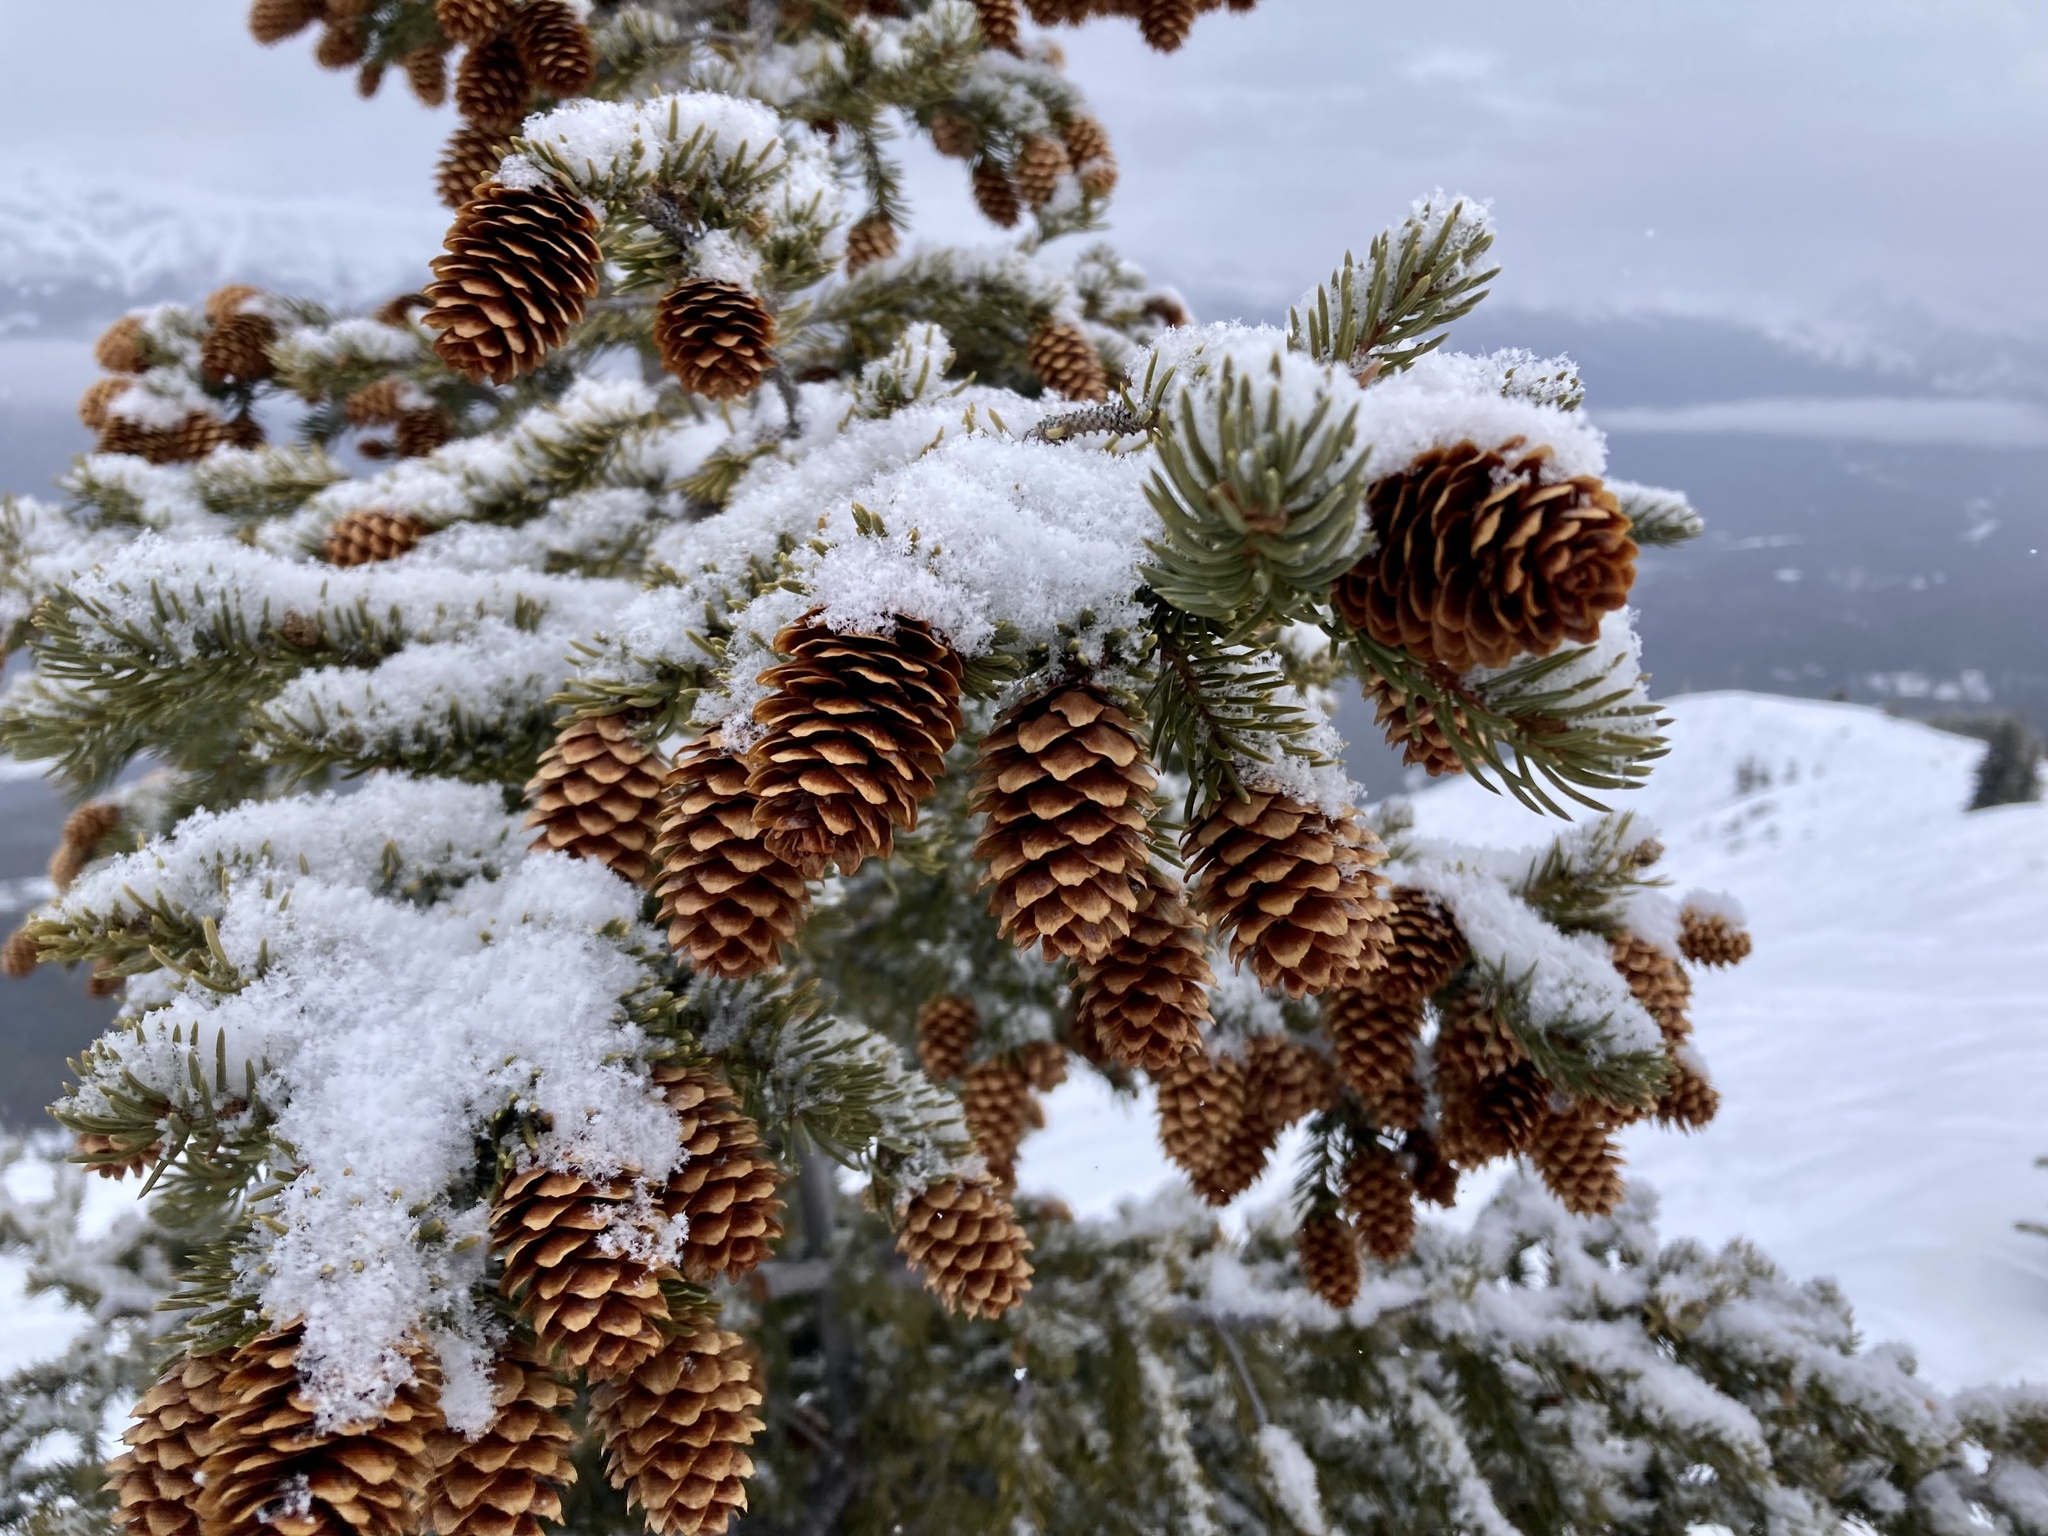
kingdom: Plantae
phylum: Tracheophyta
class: Pinopsida
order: Pinales
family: Pinaceae
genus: Picea
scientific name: Picea engelmannii
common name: Engelmann spruce
